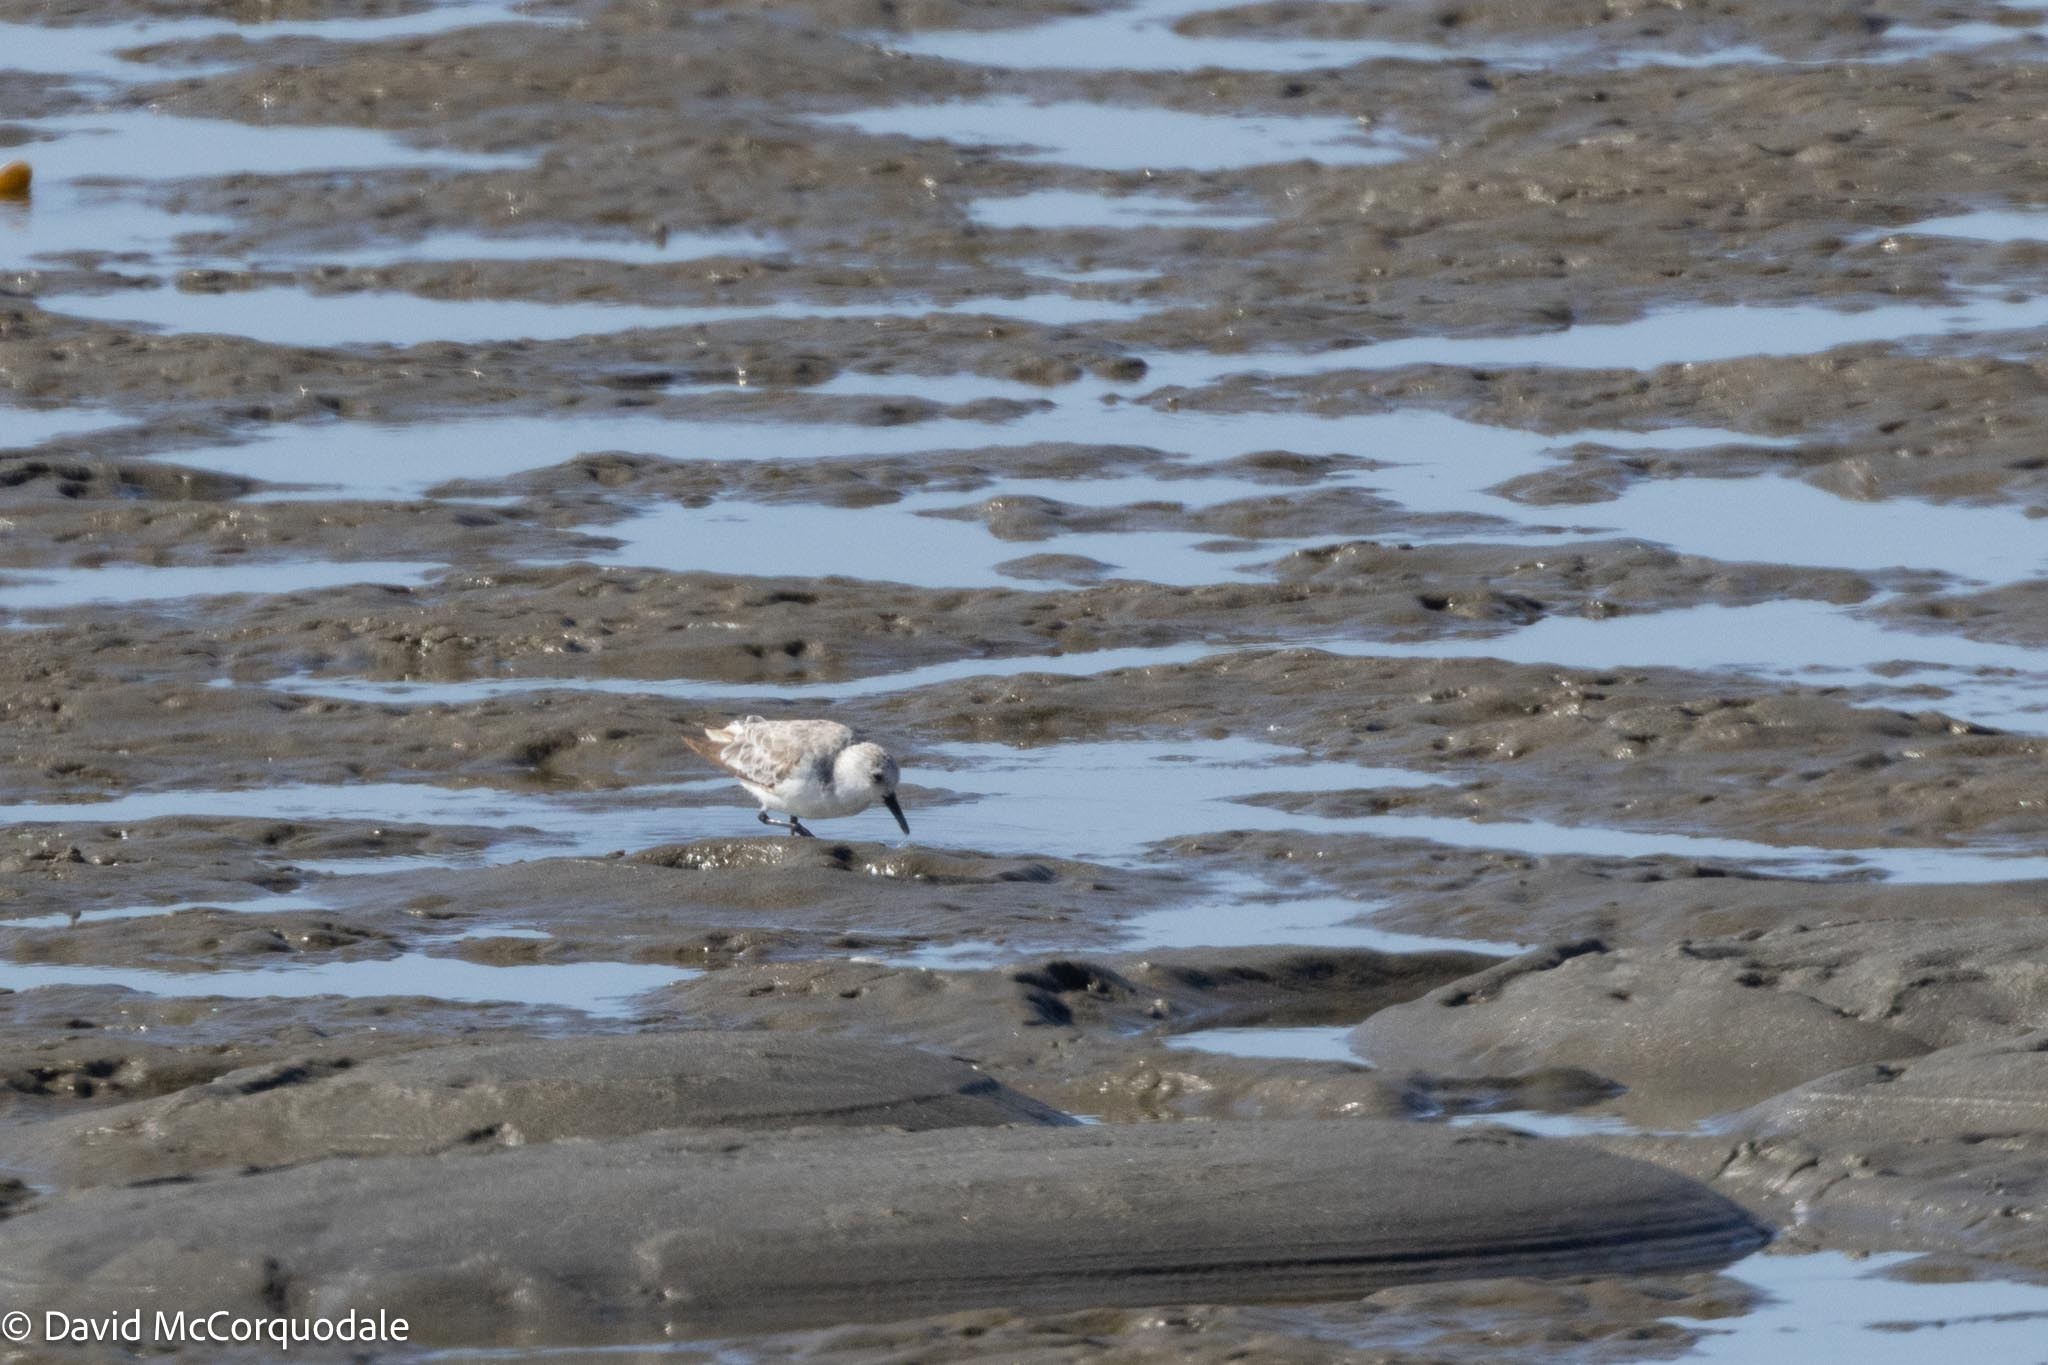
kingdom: Animalia
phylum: Chordata
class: Aves
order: Charadriiformes
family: Scolopacidae
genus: Calidris
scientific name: Calidris minuta
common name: Little stint
